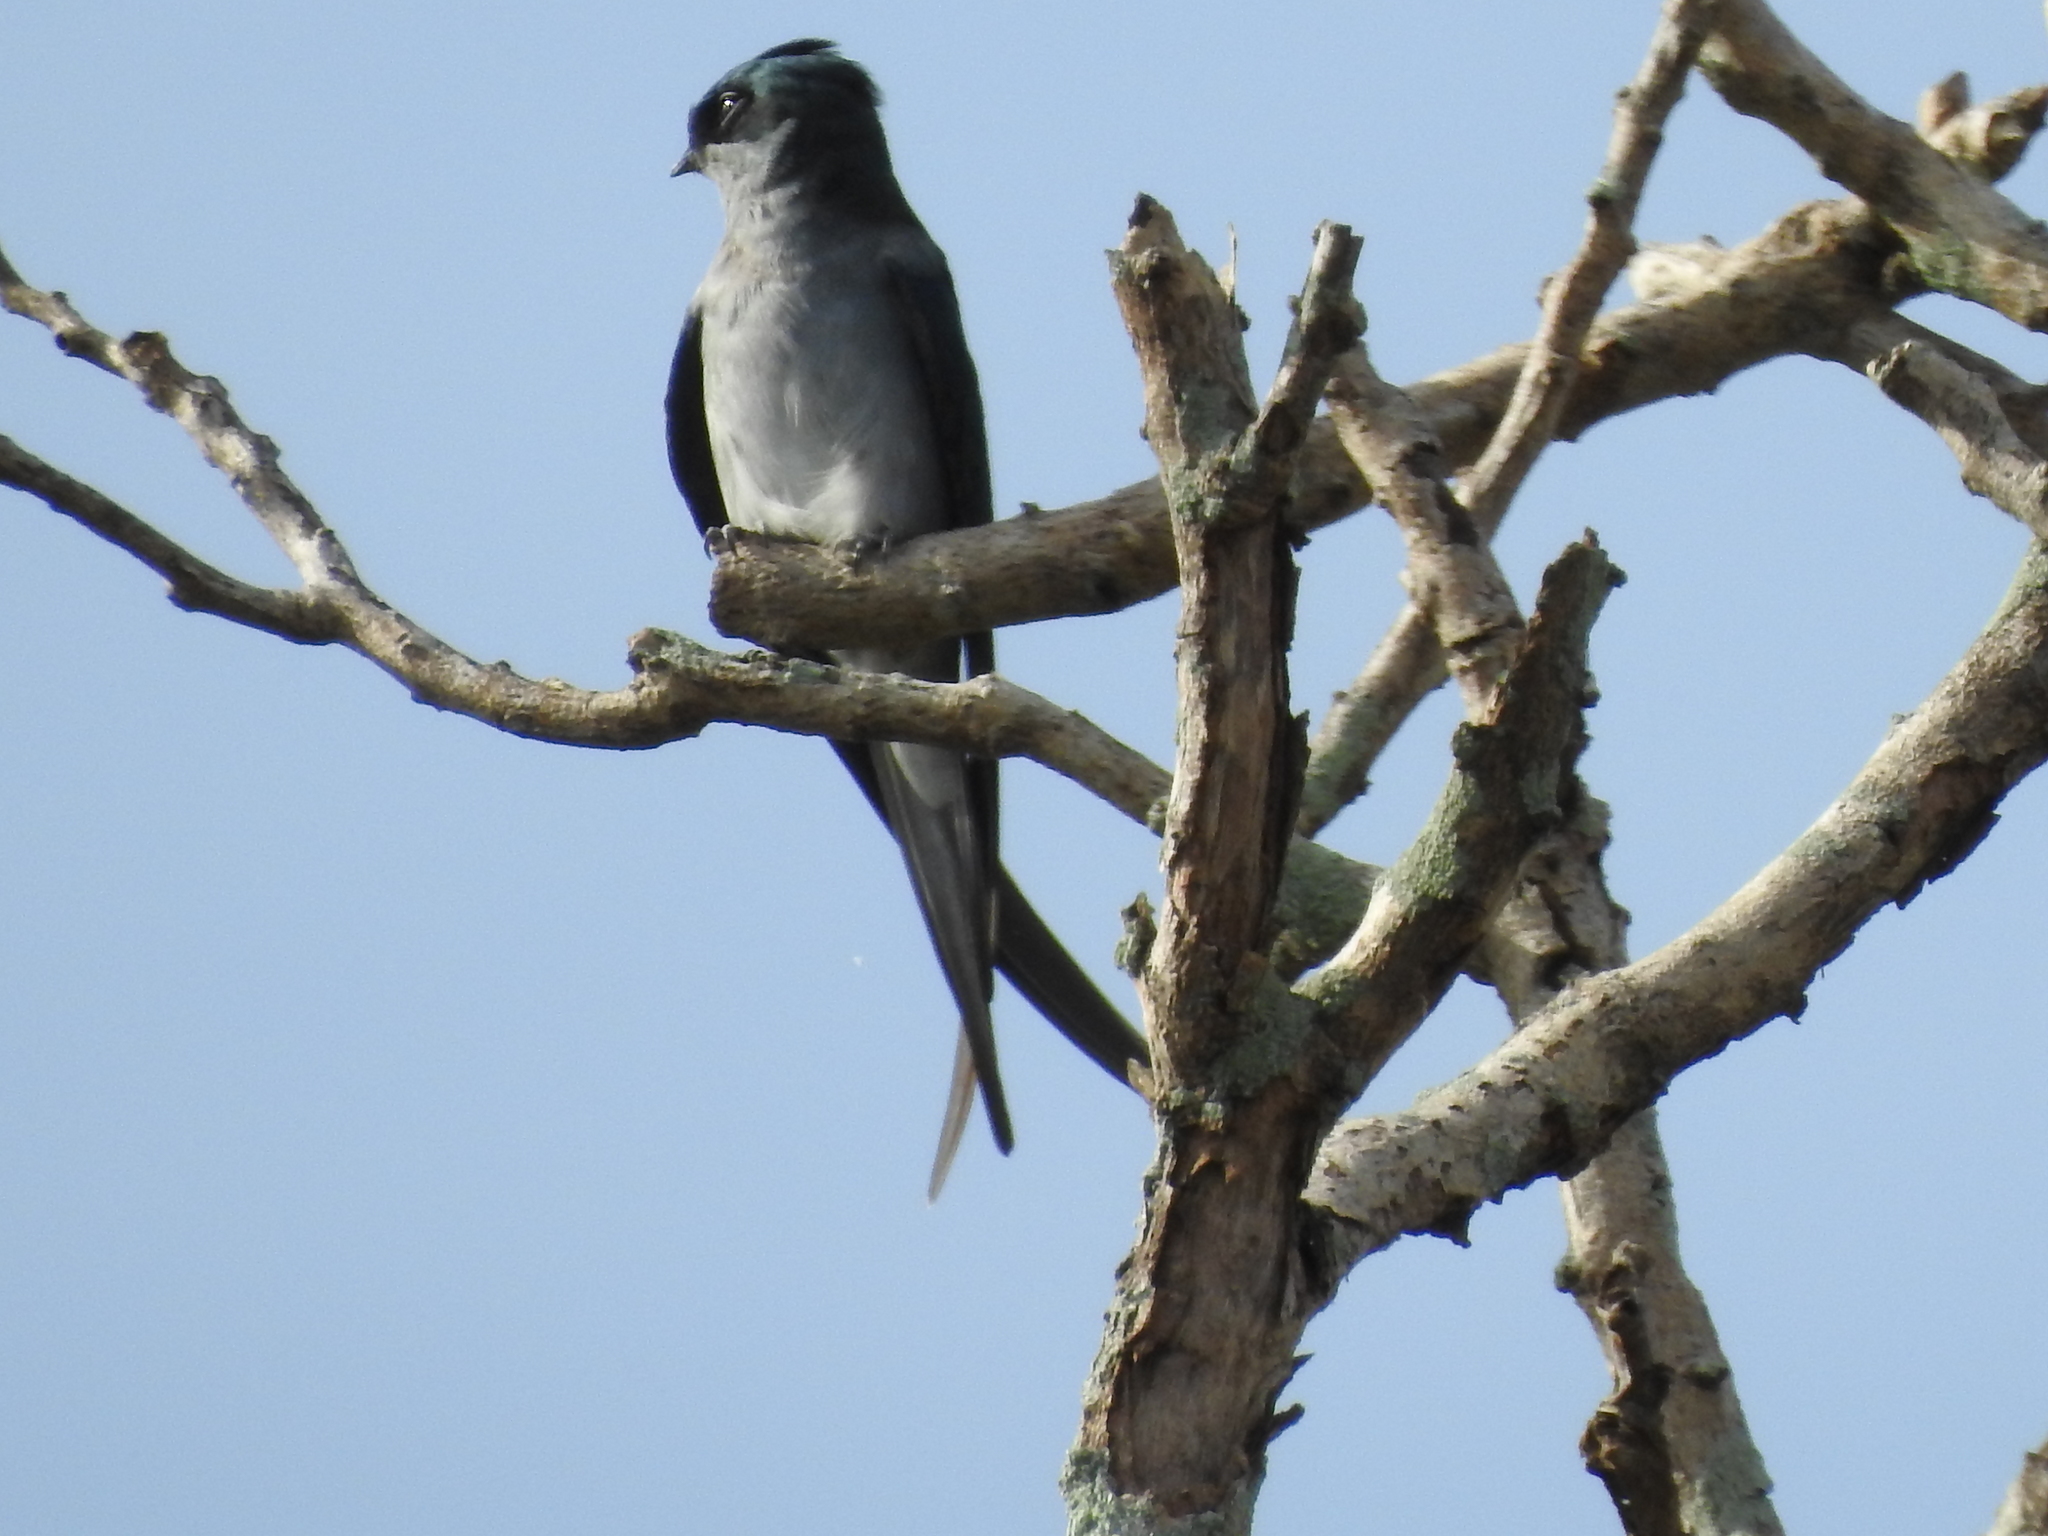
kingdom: Animalia
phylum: Chordata
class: Aves
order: Apodiformes
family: Hemiprocnidae
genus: Hemiprocne
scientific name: Hemiprocne longipennis
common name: Grey-rumped treeswift
